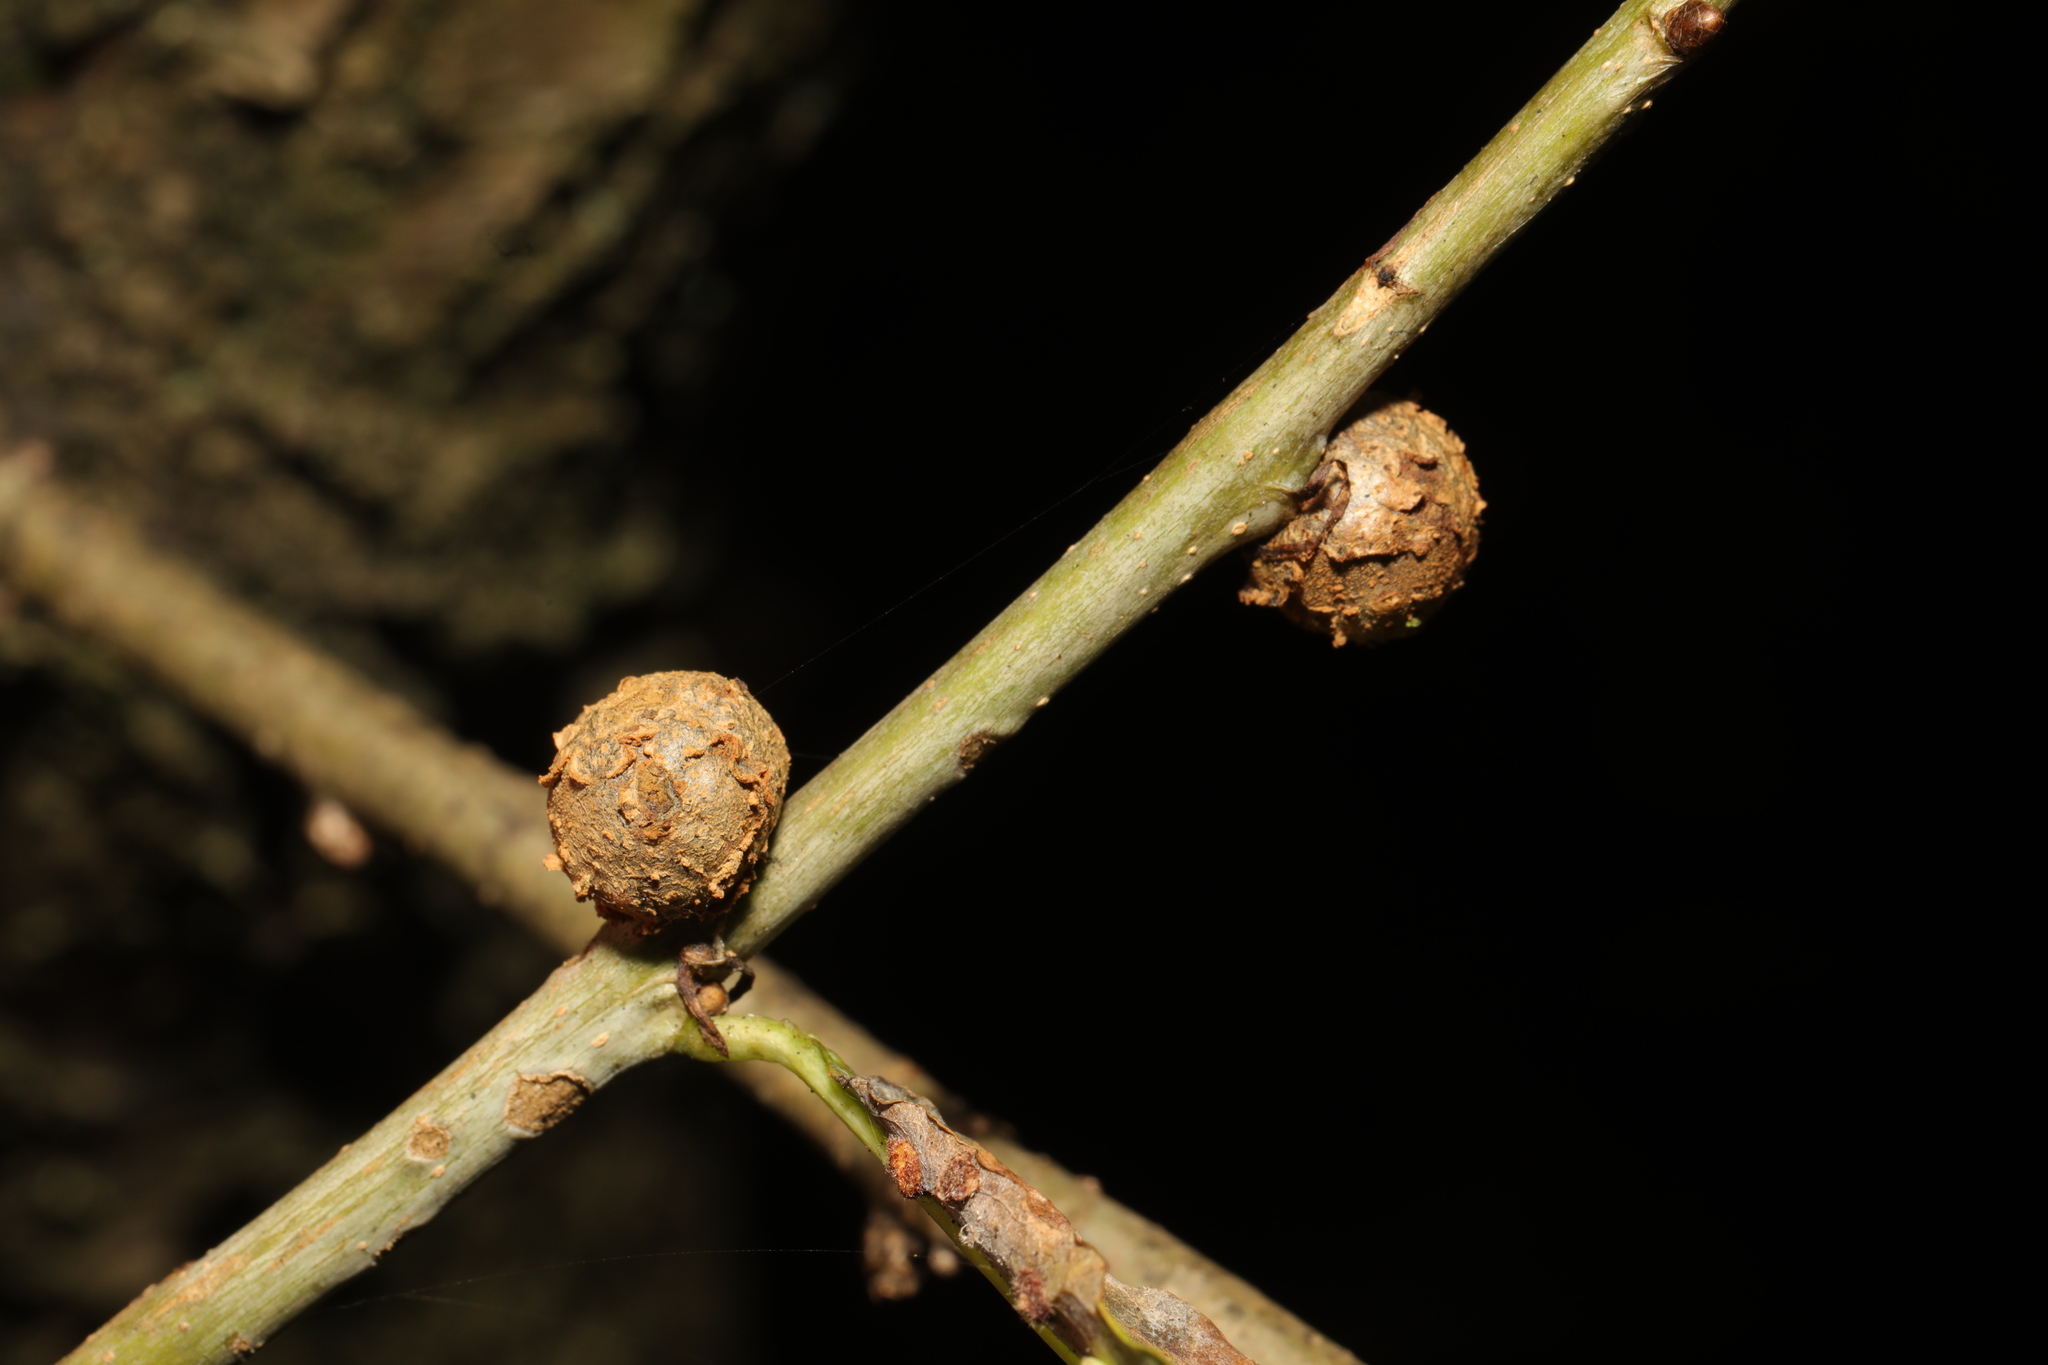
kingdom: Animalia
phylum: Arthropoda
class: Insecta
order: Hymenoptera
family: Cynipidae
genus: Andricus
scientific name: Andricus lignicolus
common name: Cola-nut gall
